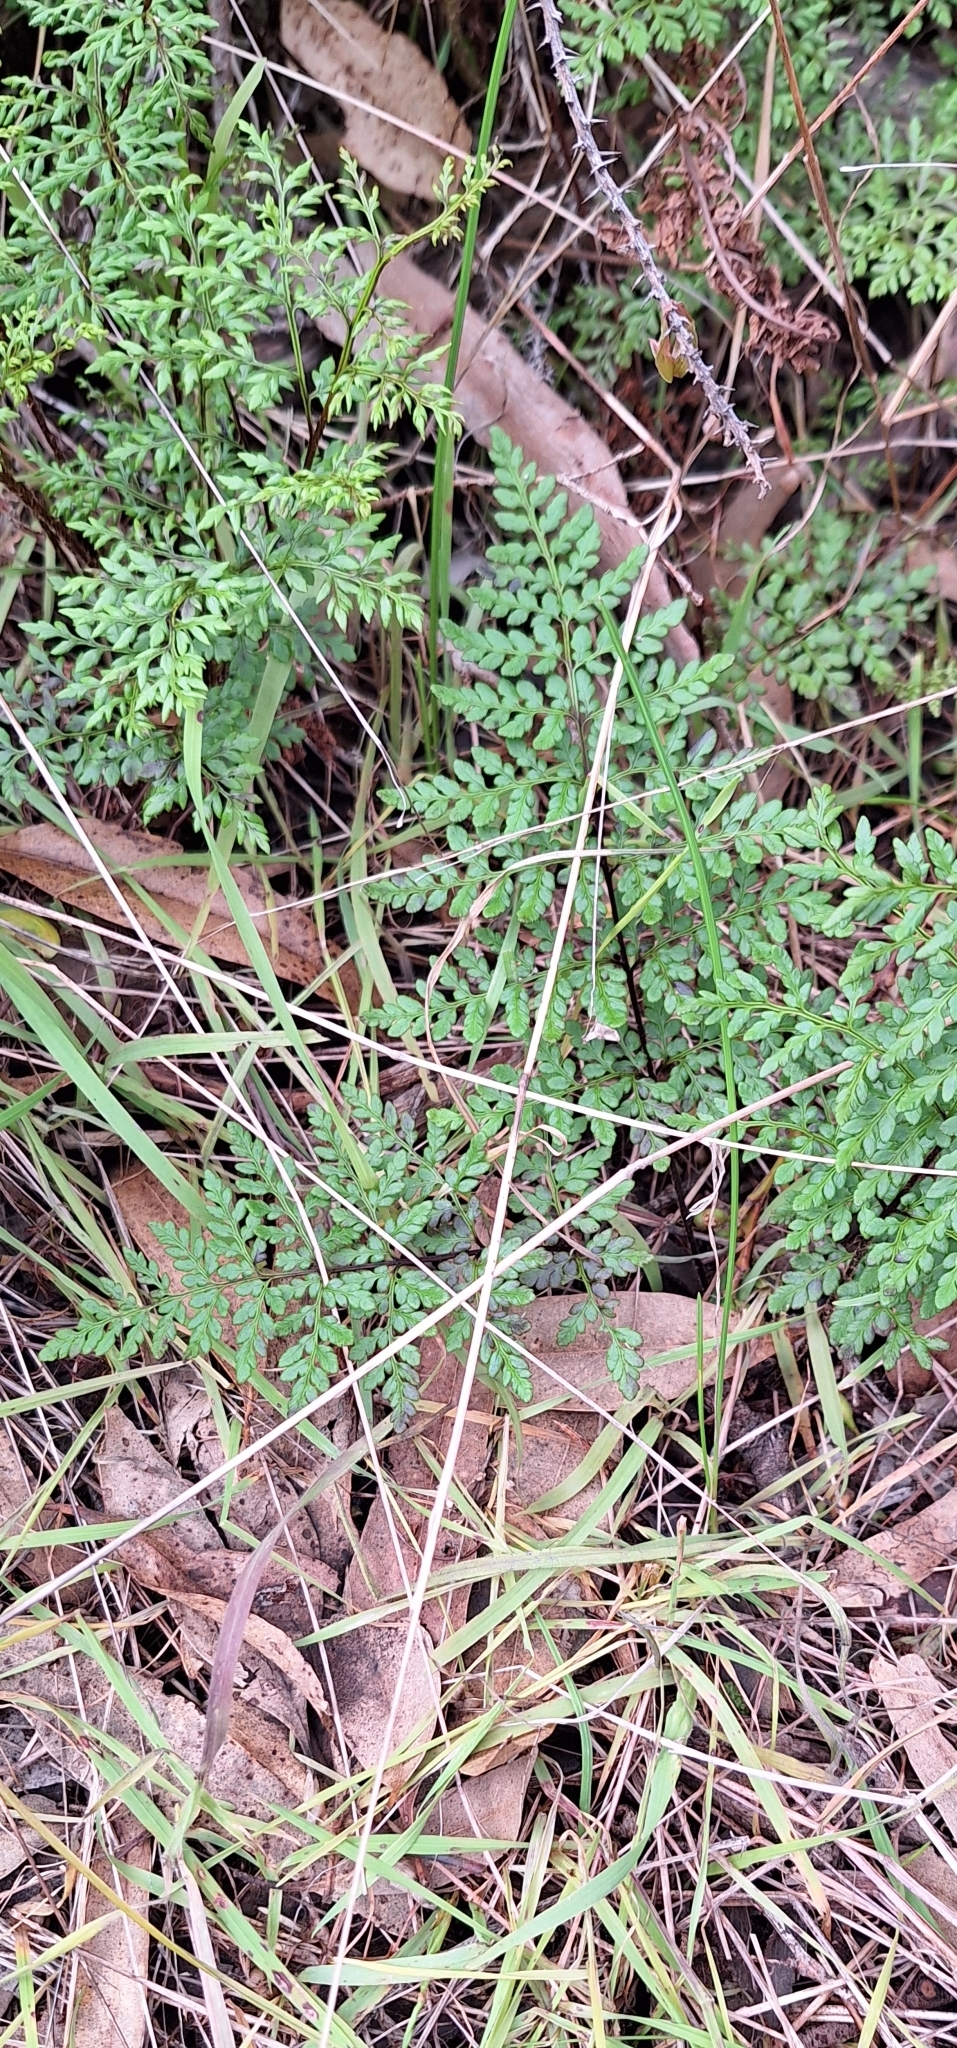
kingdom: Plantae
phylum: Tracheophyta
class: Polypodiopsida
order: Polypodiales
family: Pteridaceae
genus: Cheilanthes
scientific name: Cheilanthes austrotenuifolia
